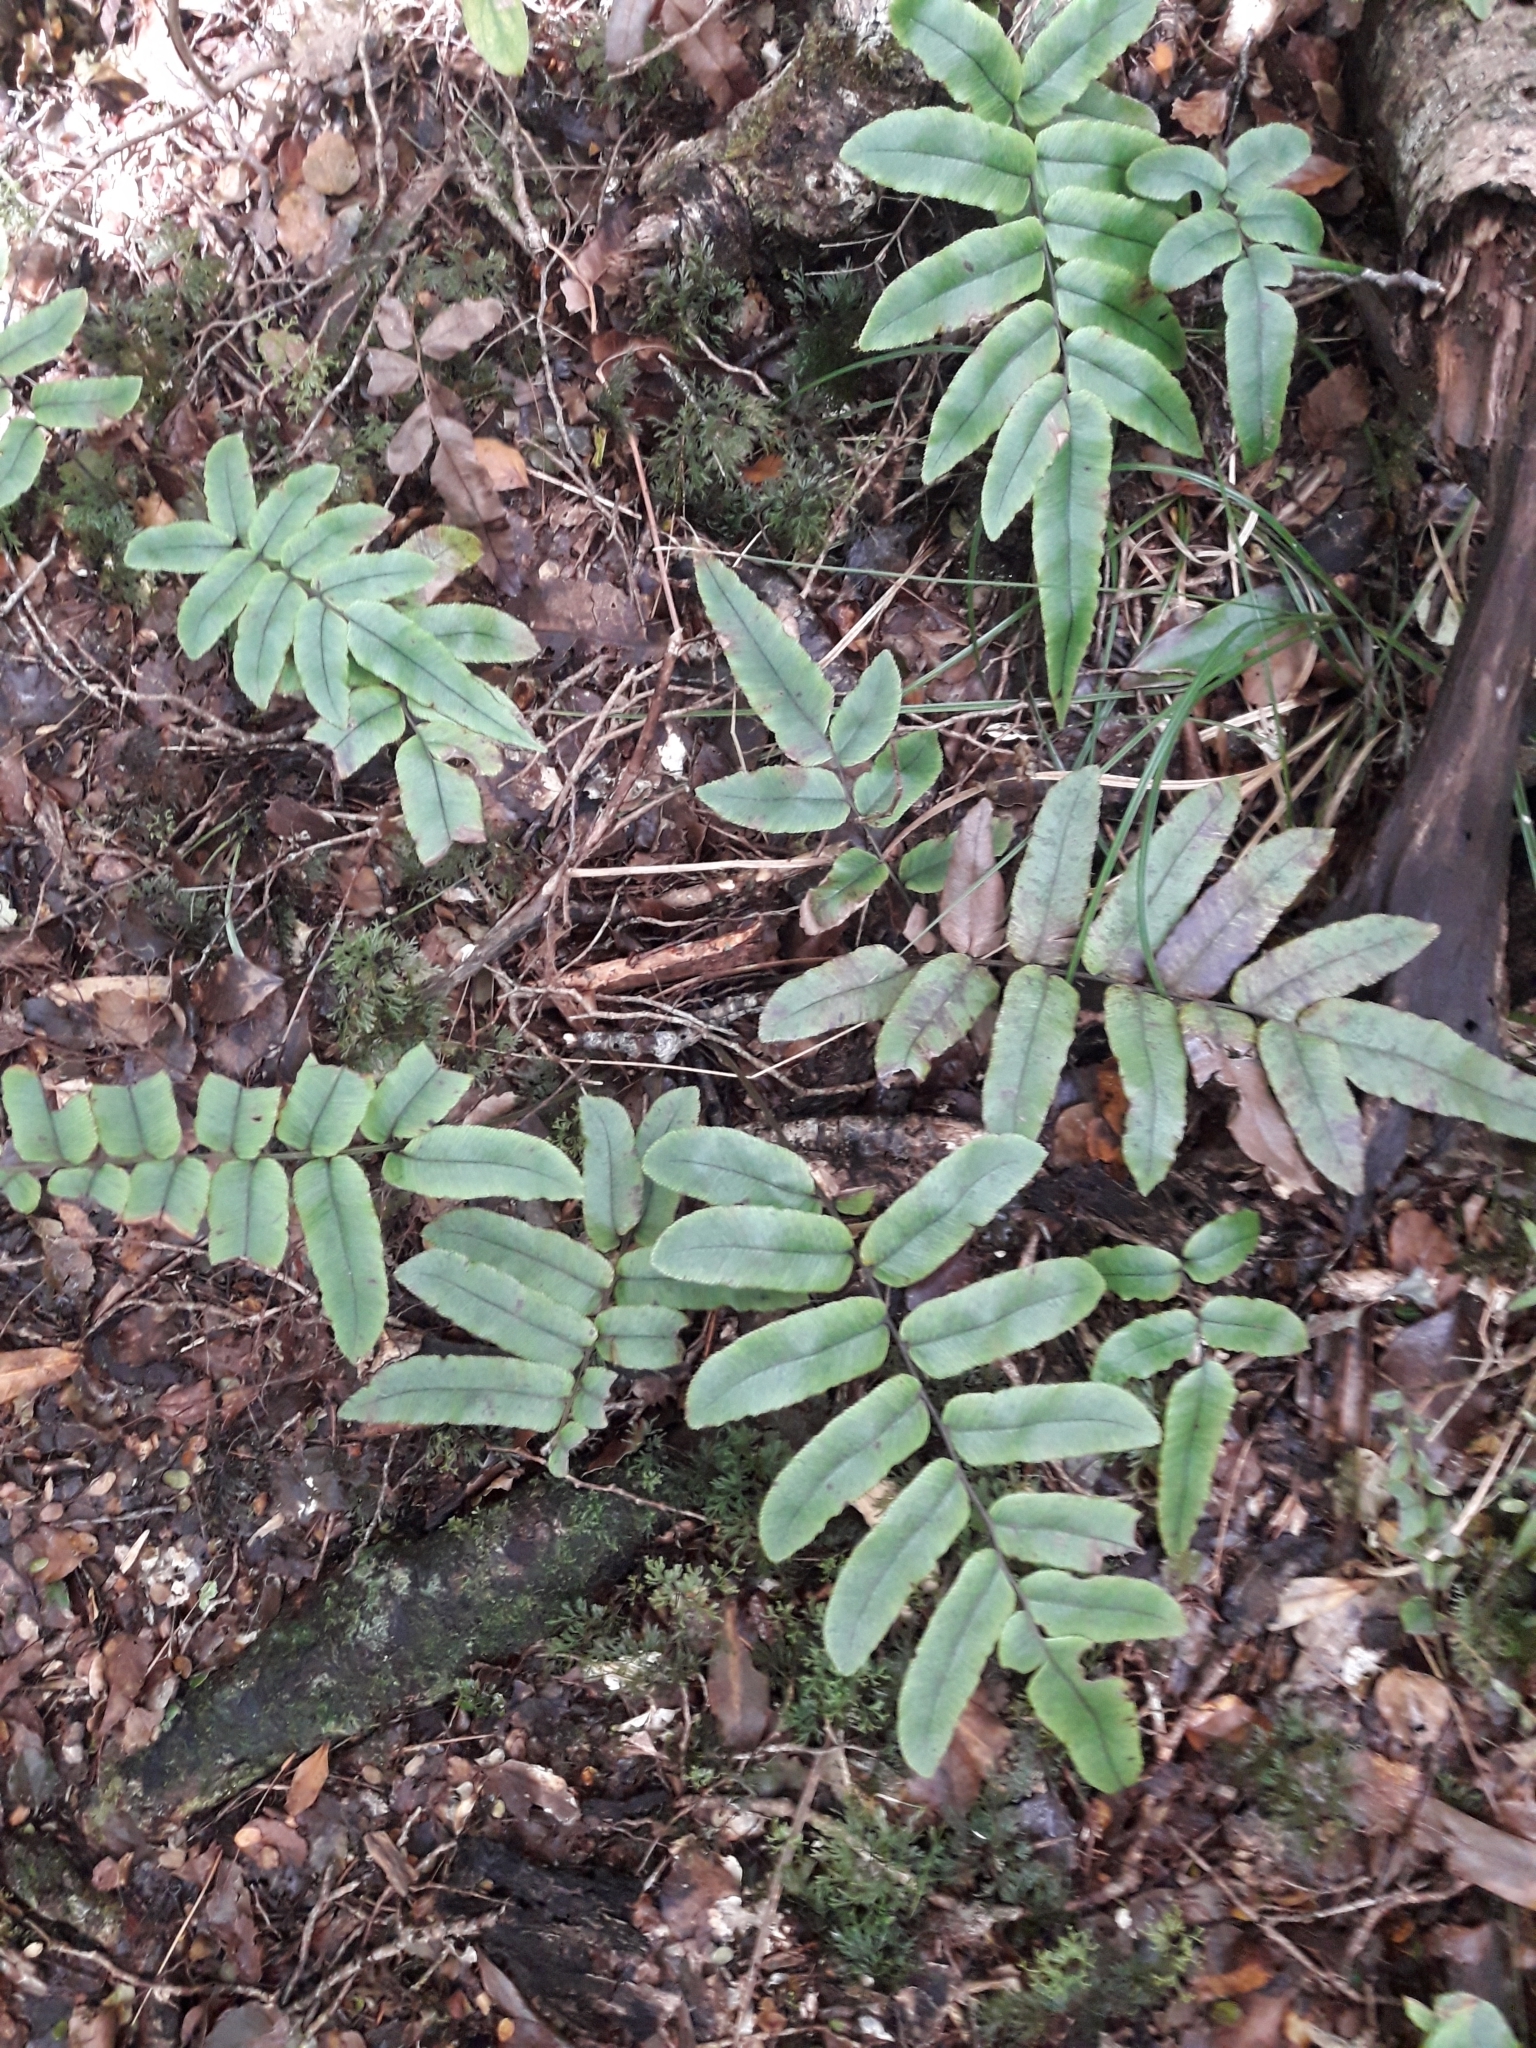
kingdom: Plantae
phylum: Tracheophyta
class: Polypodiopsida
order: Polypodiales
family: Blechnaceae
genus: Parablechnum
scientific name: Parablechnum procerum
